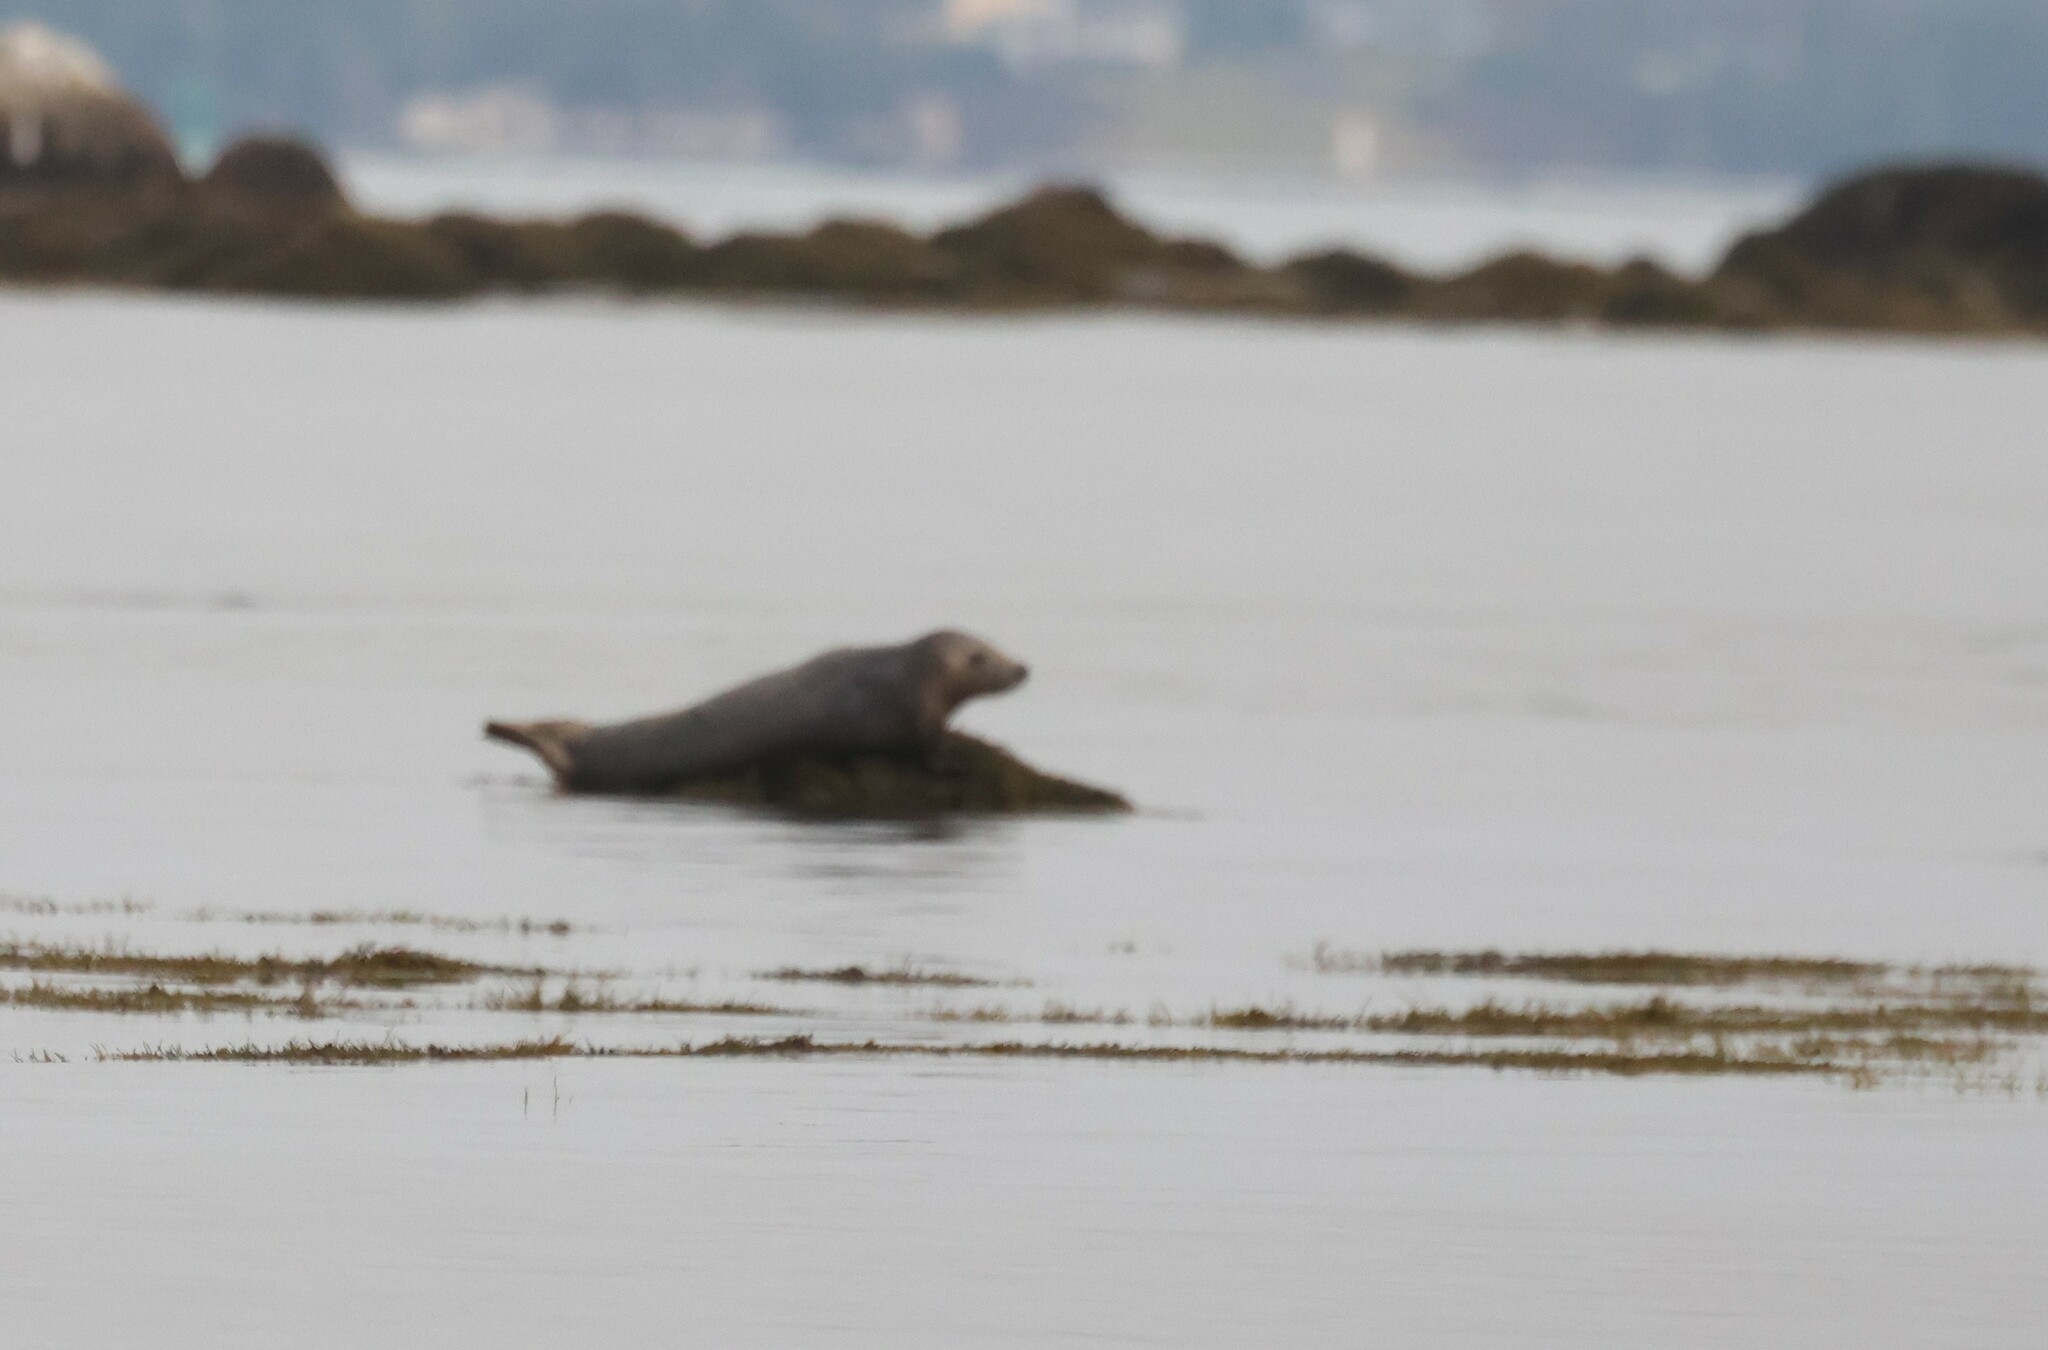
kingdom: Animalia
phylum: Chordata
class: Mammalia
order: Carnivora
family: Phocidae
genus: Halichoerus
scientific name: Halichoerus grypus
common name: Grey seal
